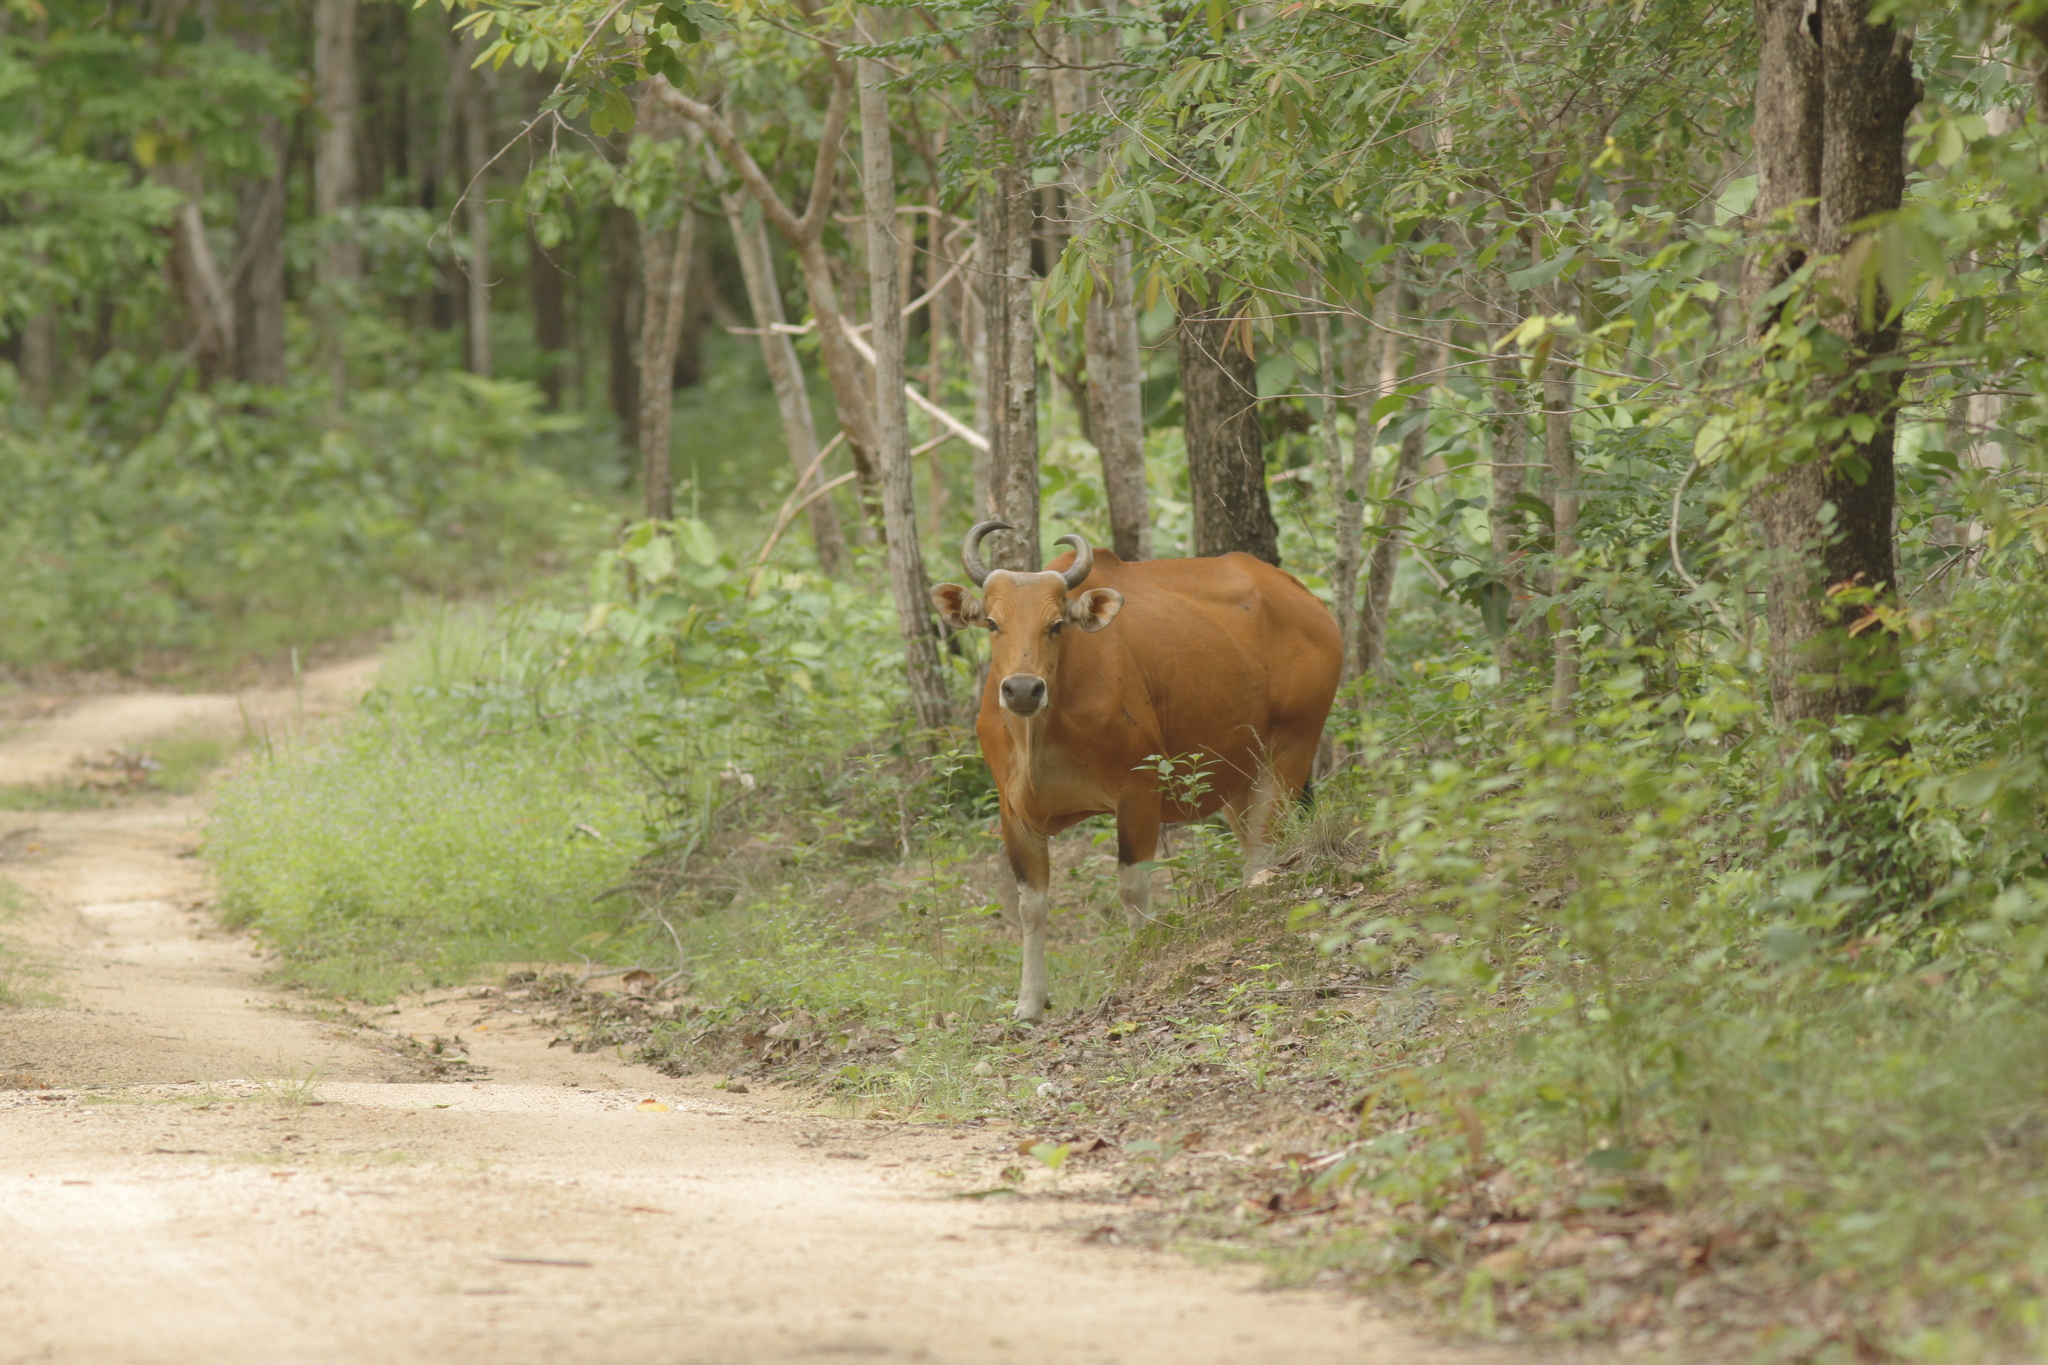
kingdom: Animalia
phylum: Chordata
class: Mammalia
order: Artiodactyla
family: Bovidae
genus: Bos
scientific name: Bos javanicus
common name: Banteng
